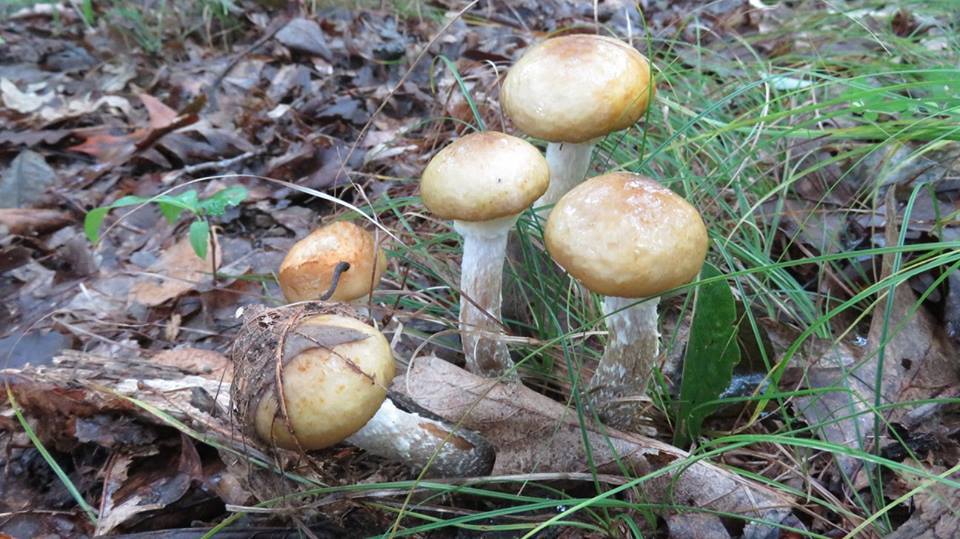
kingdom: Fungi
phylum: Basidiomycota
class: Agaricomycetes
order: Agaricales
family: Physalacriaceae
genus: Armillaria
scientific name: Armillaria mellea
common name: Honey fungus
